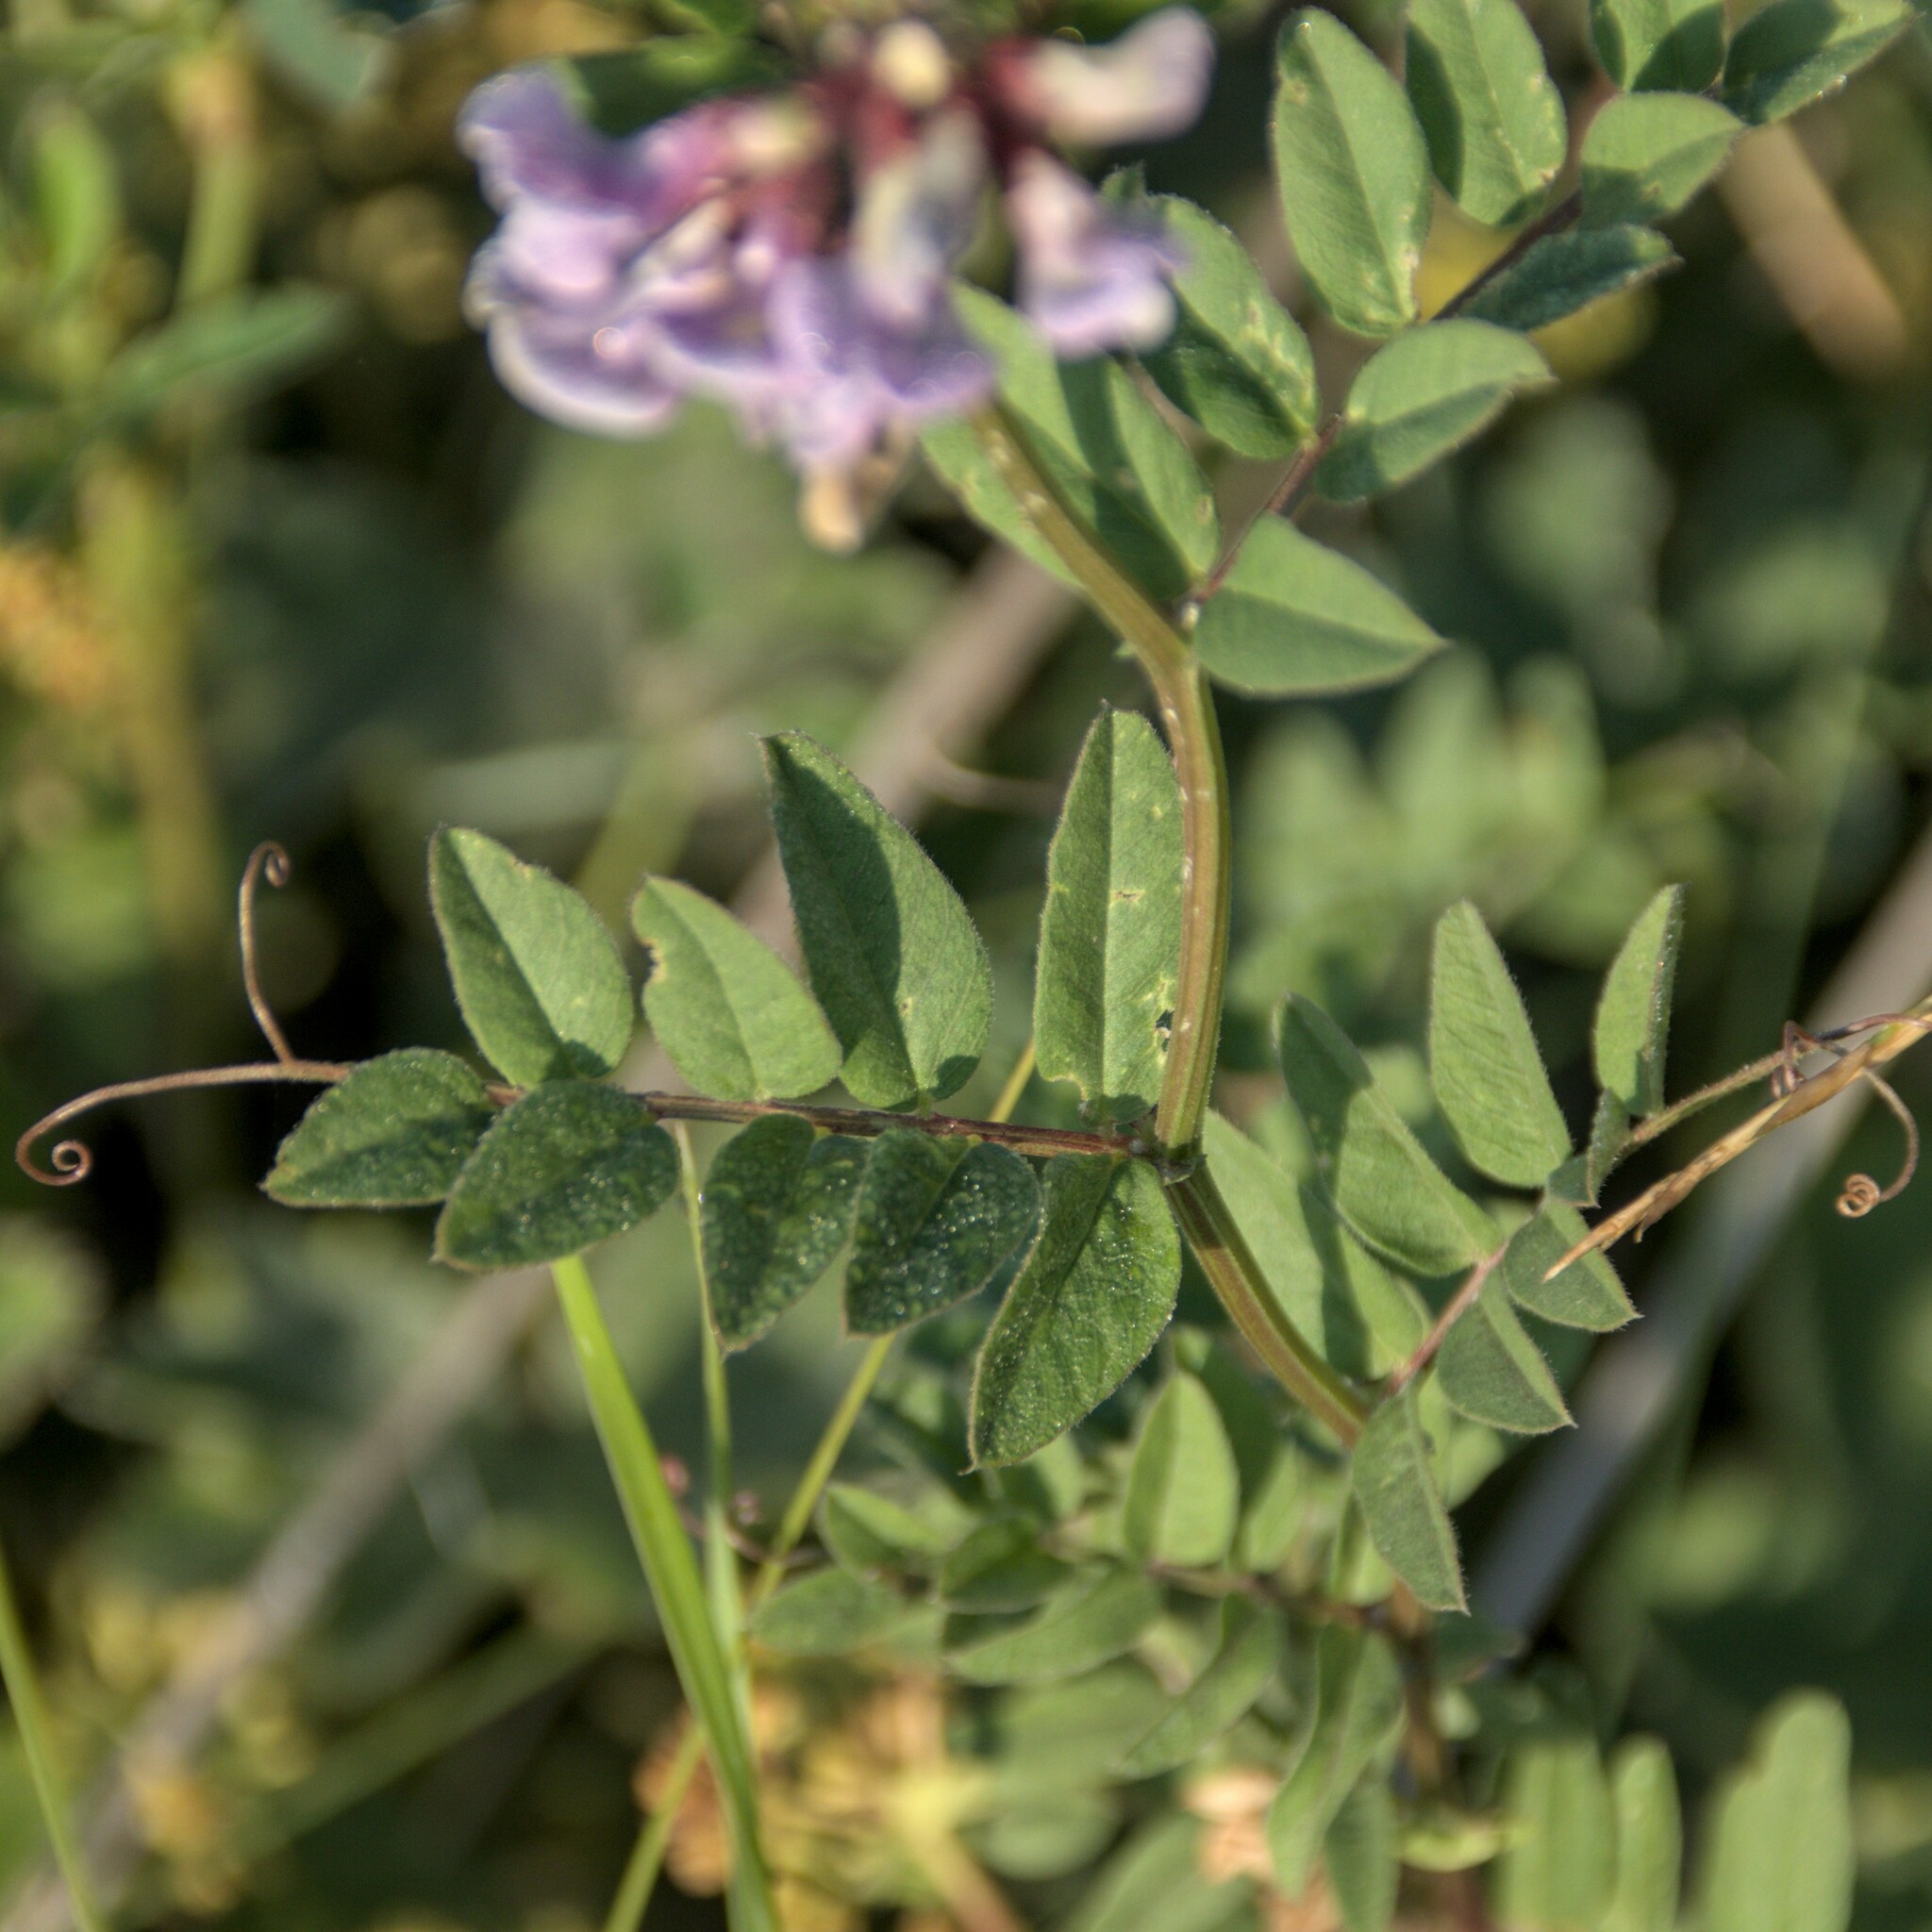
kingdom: Plantae
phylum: Tracheophyta
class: Magnoliopsida
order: Fabales
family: Fabaceae
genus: Vicia
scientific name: Vicia sepium
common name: Bush vetch
